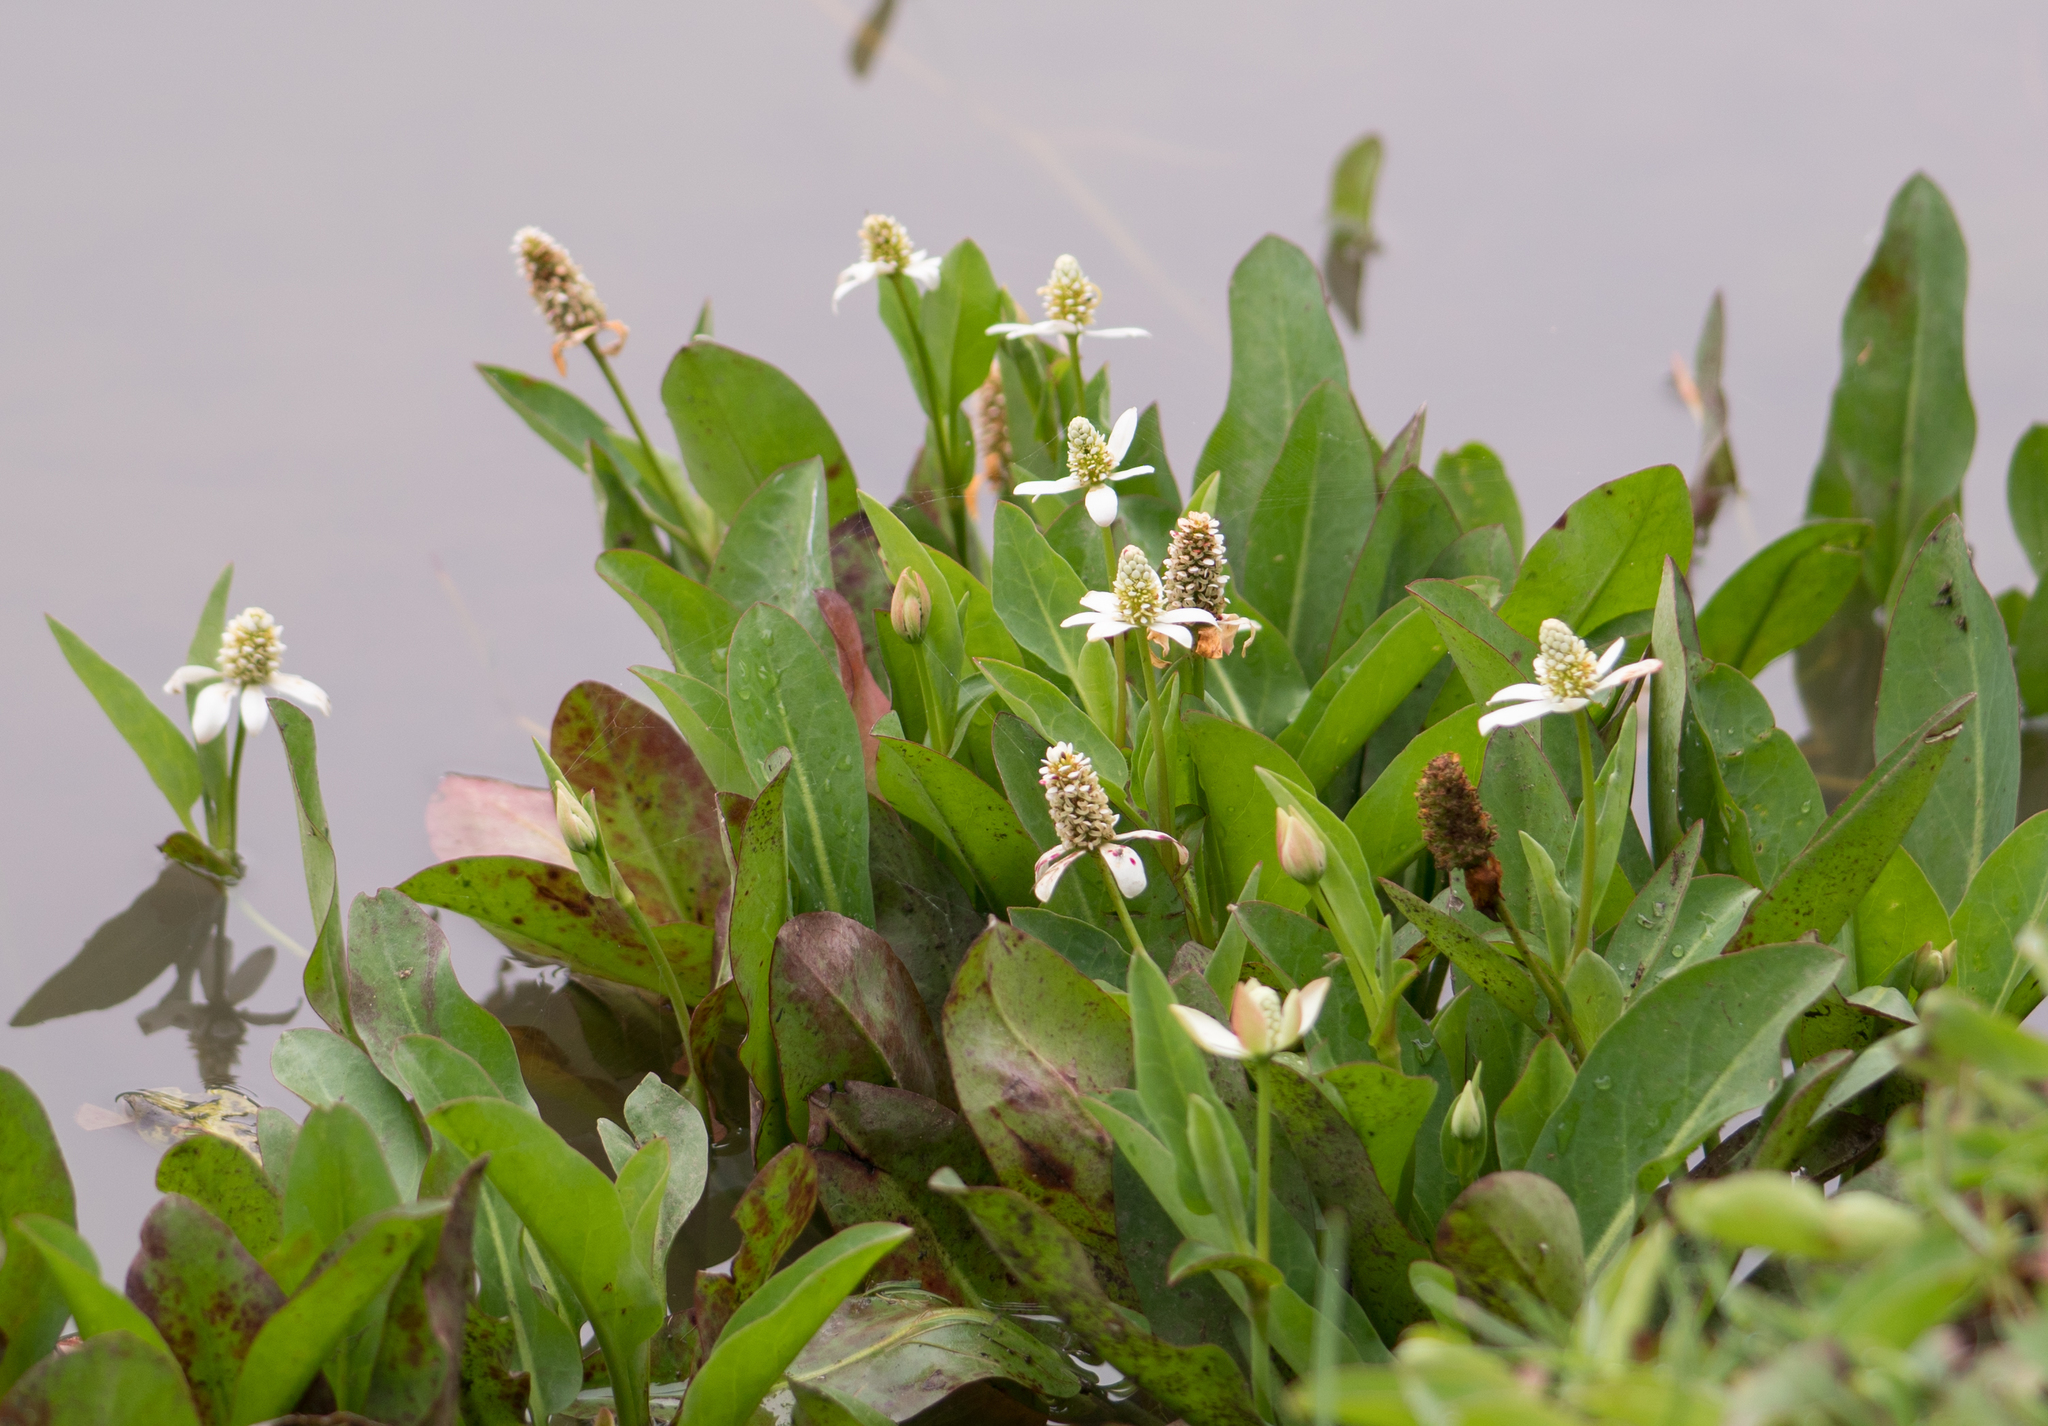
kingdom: Plantae
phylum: Tracheophyta
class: Magnoliopsida
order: Piperales
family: Saururaceae
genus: Anemopsis
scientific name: Anemopsis californica
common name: Apache-beads
